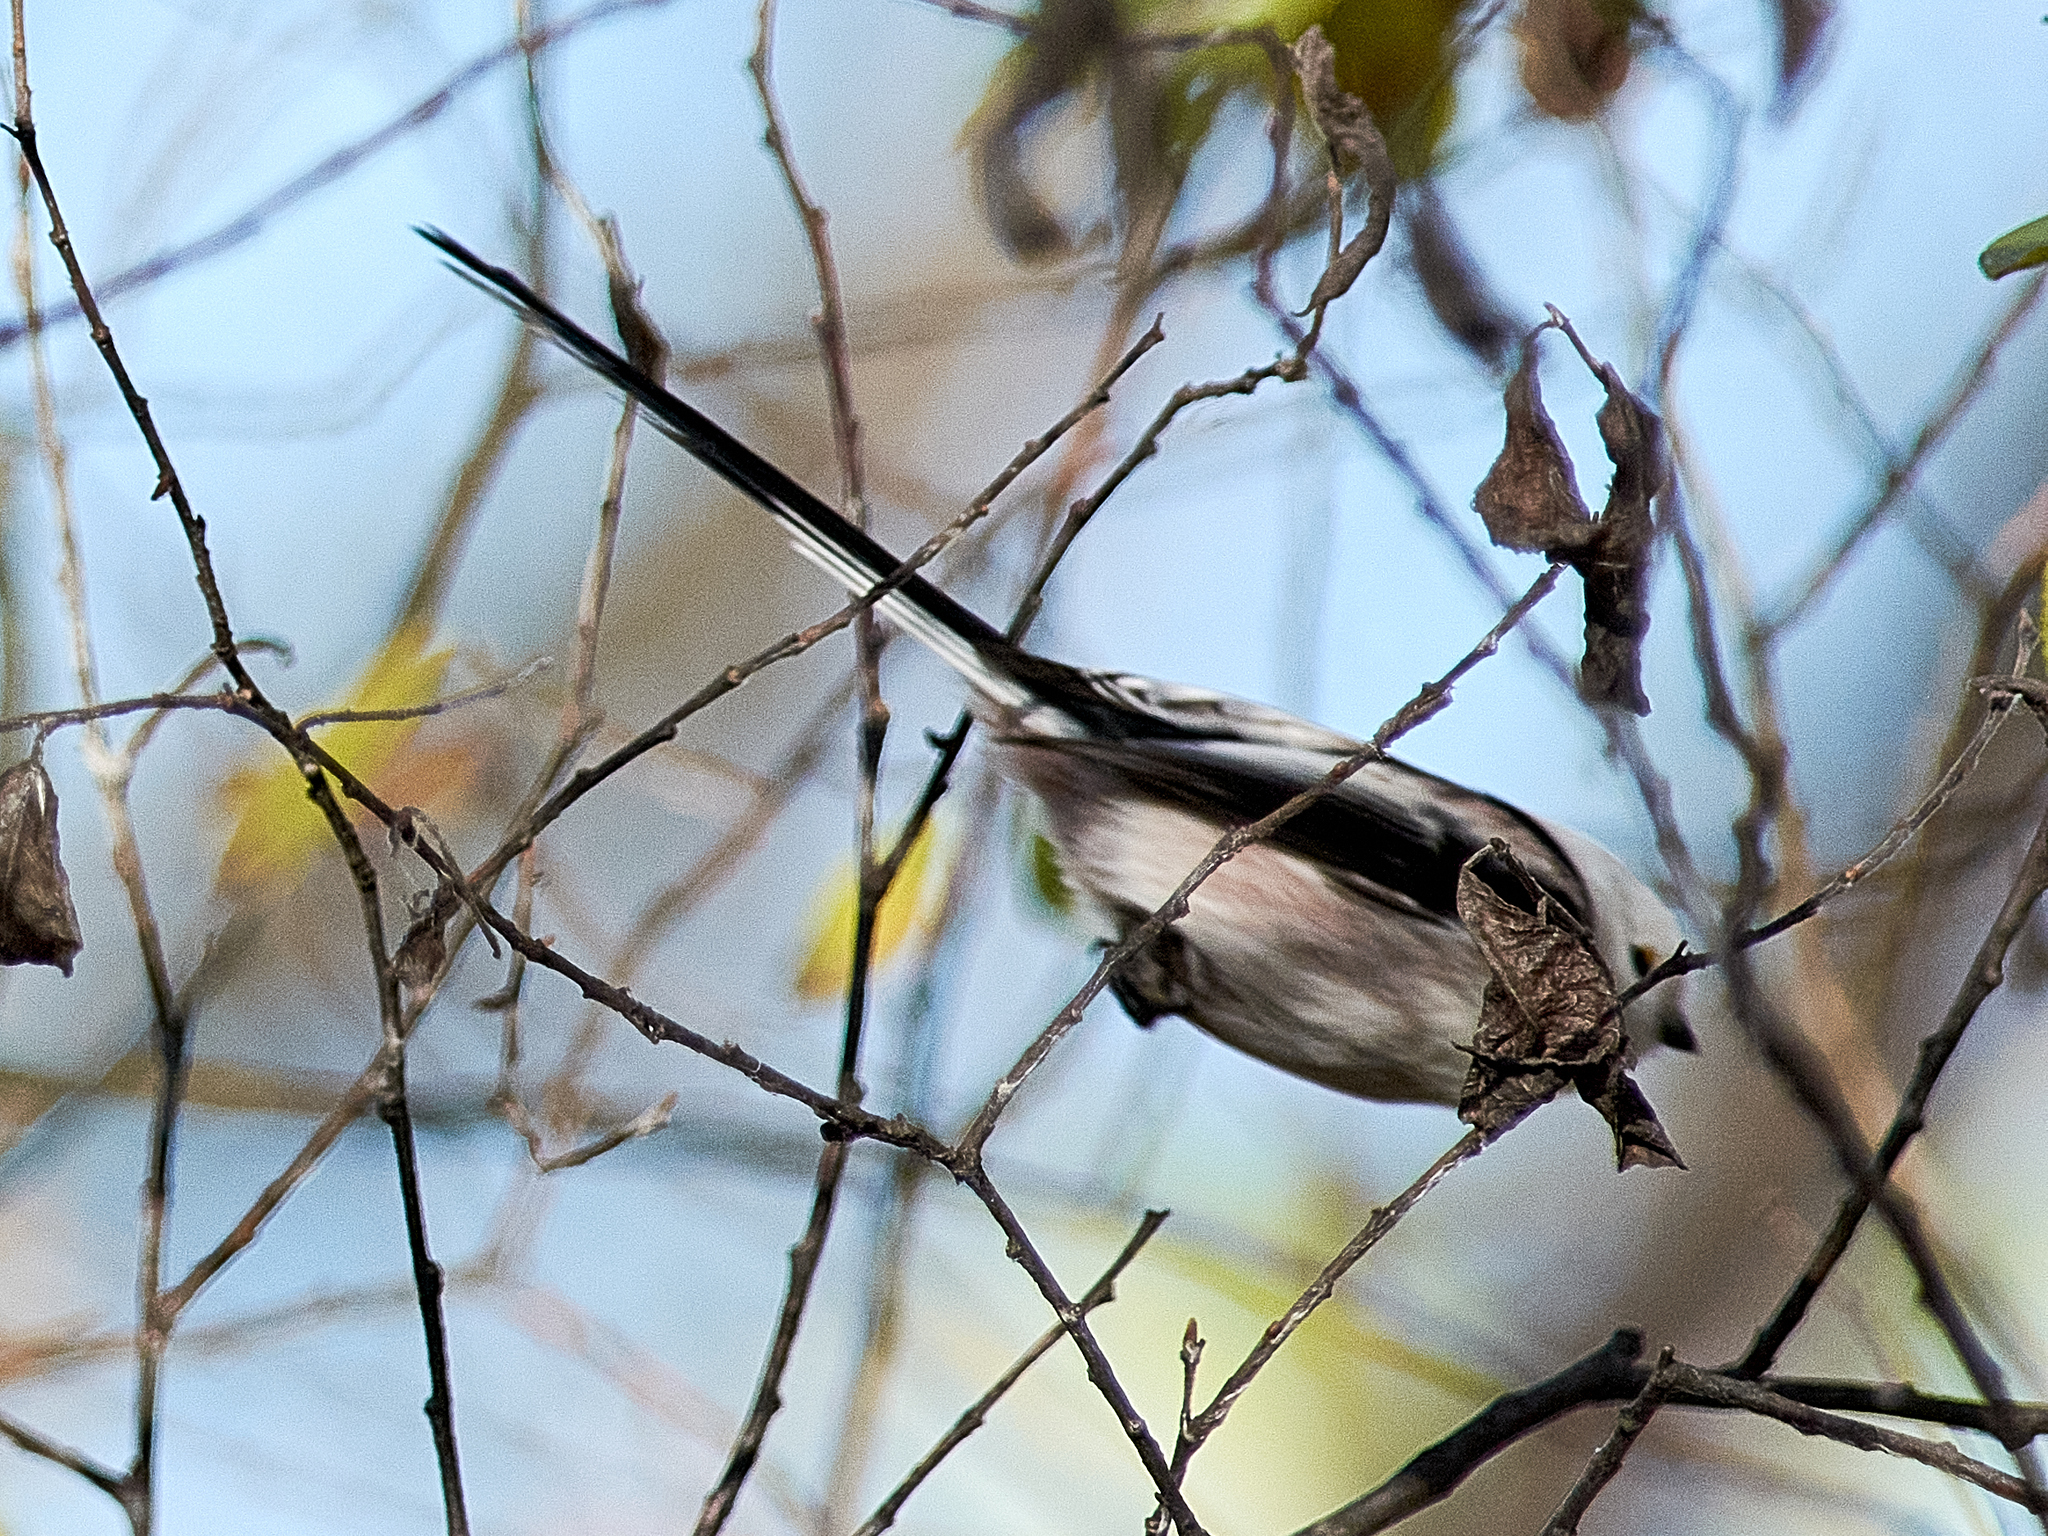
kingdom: Animalia
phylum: Chordata
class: Aves
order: Passeriformes
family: Aegithalidae
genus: Aegithalos
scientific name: Aegithalos caudatus
